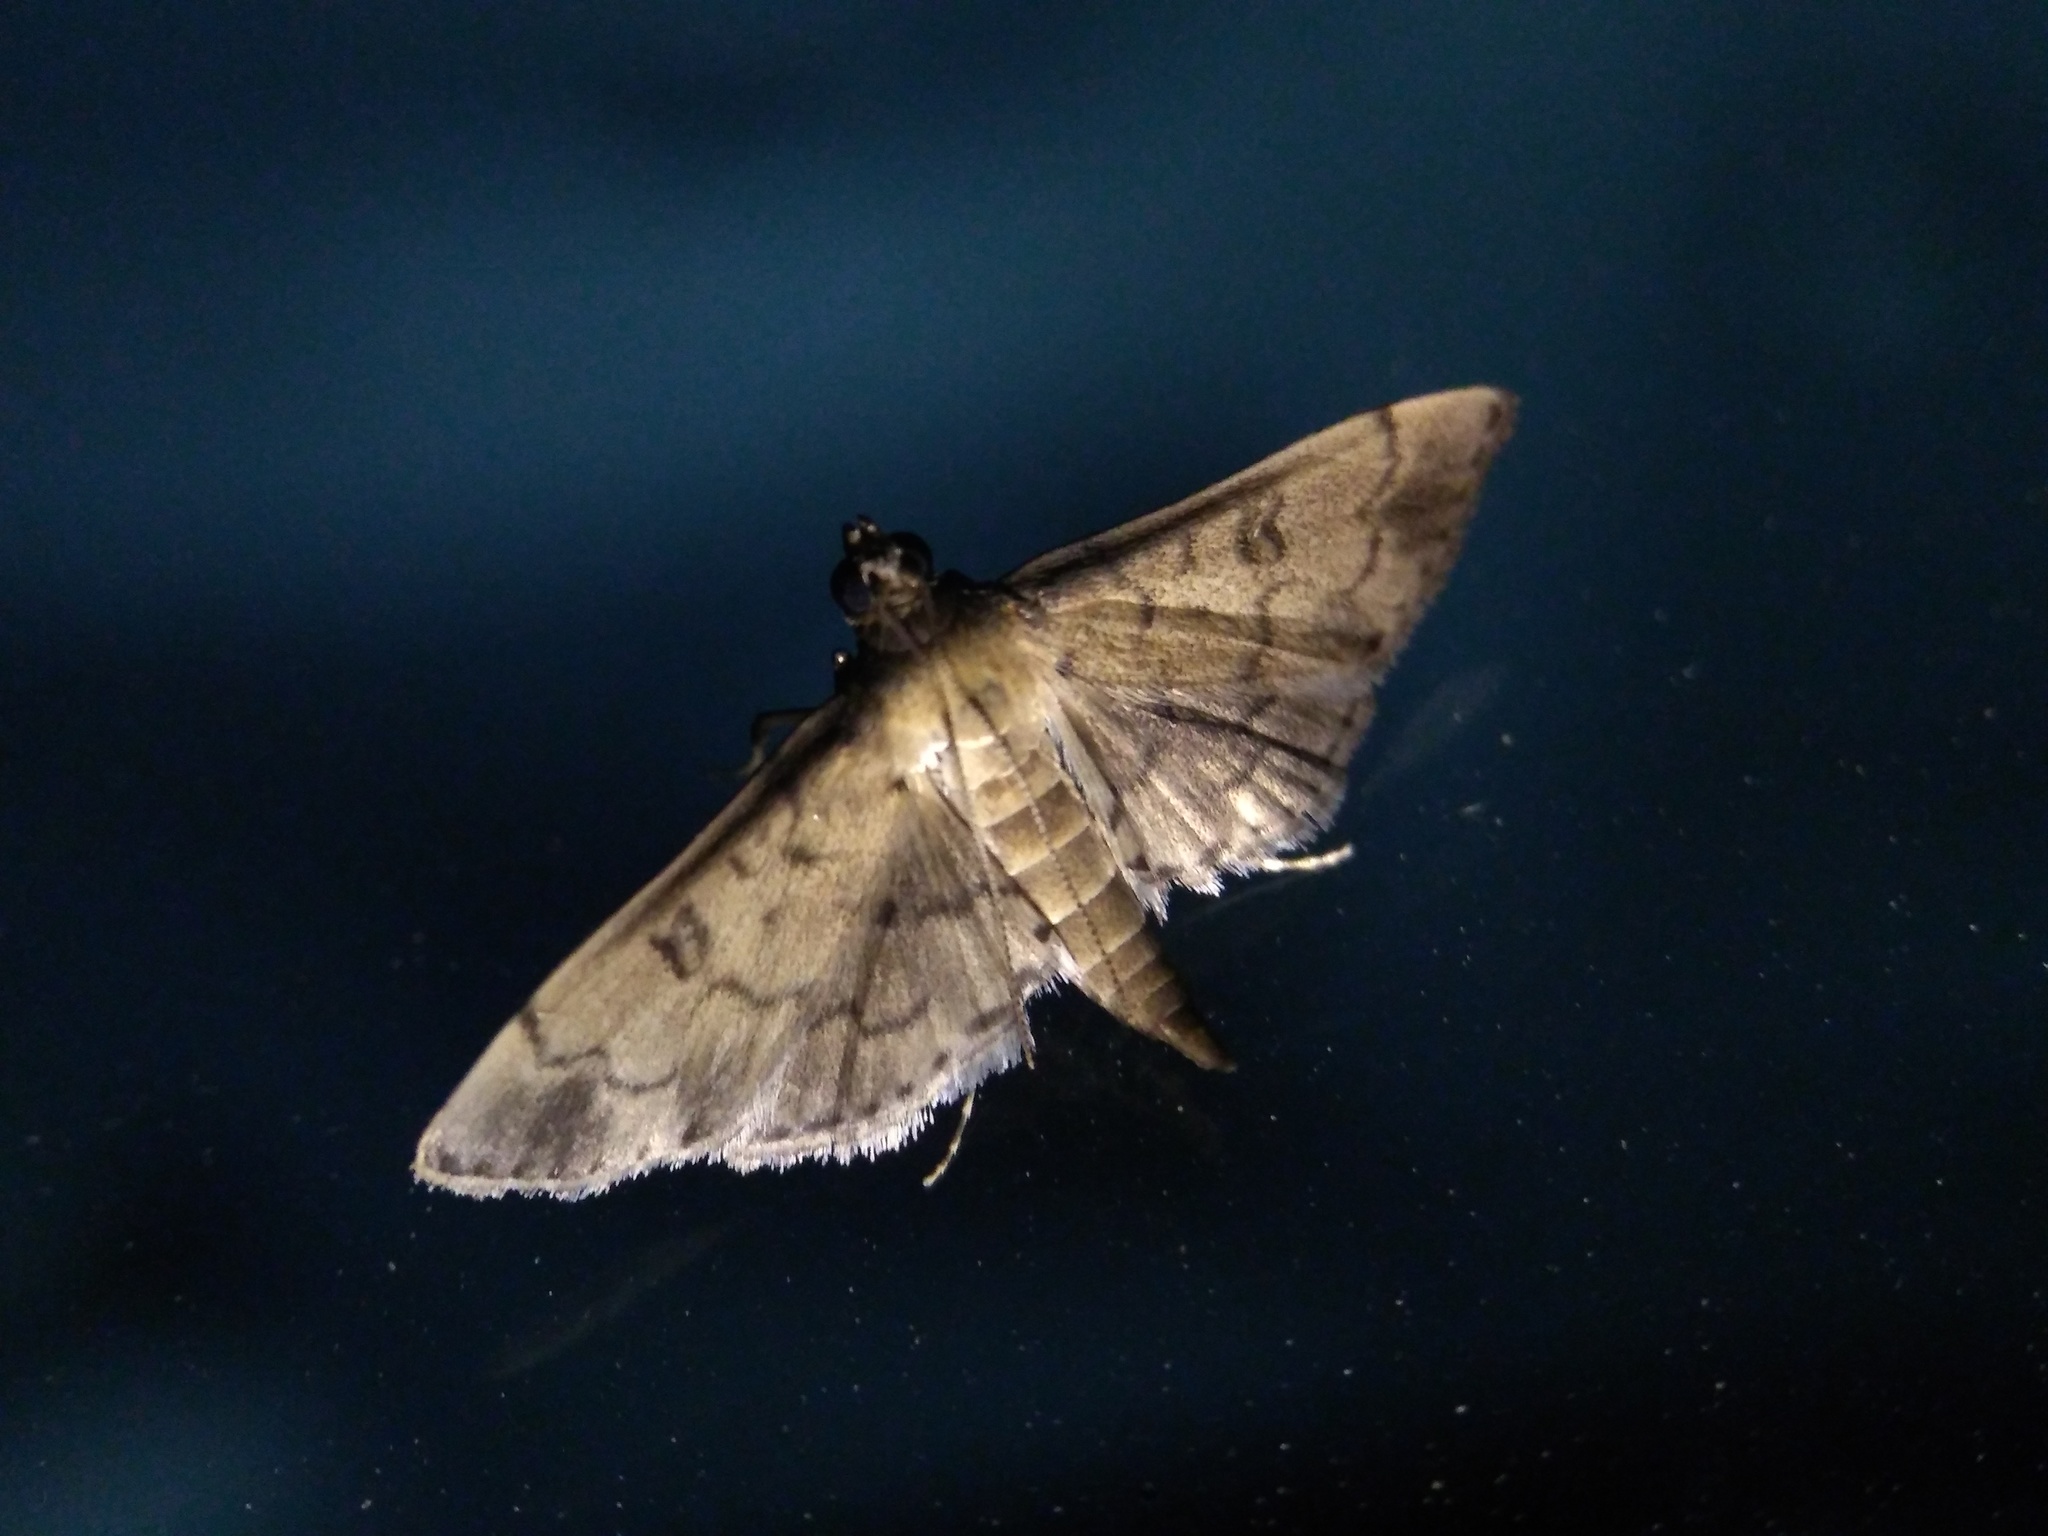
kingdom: Animalia
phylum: Arthropoda
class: Insecta
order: Lepidoptera
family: Crambidae
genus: Nacoleia
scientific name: Nacoleia charesalis
